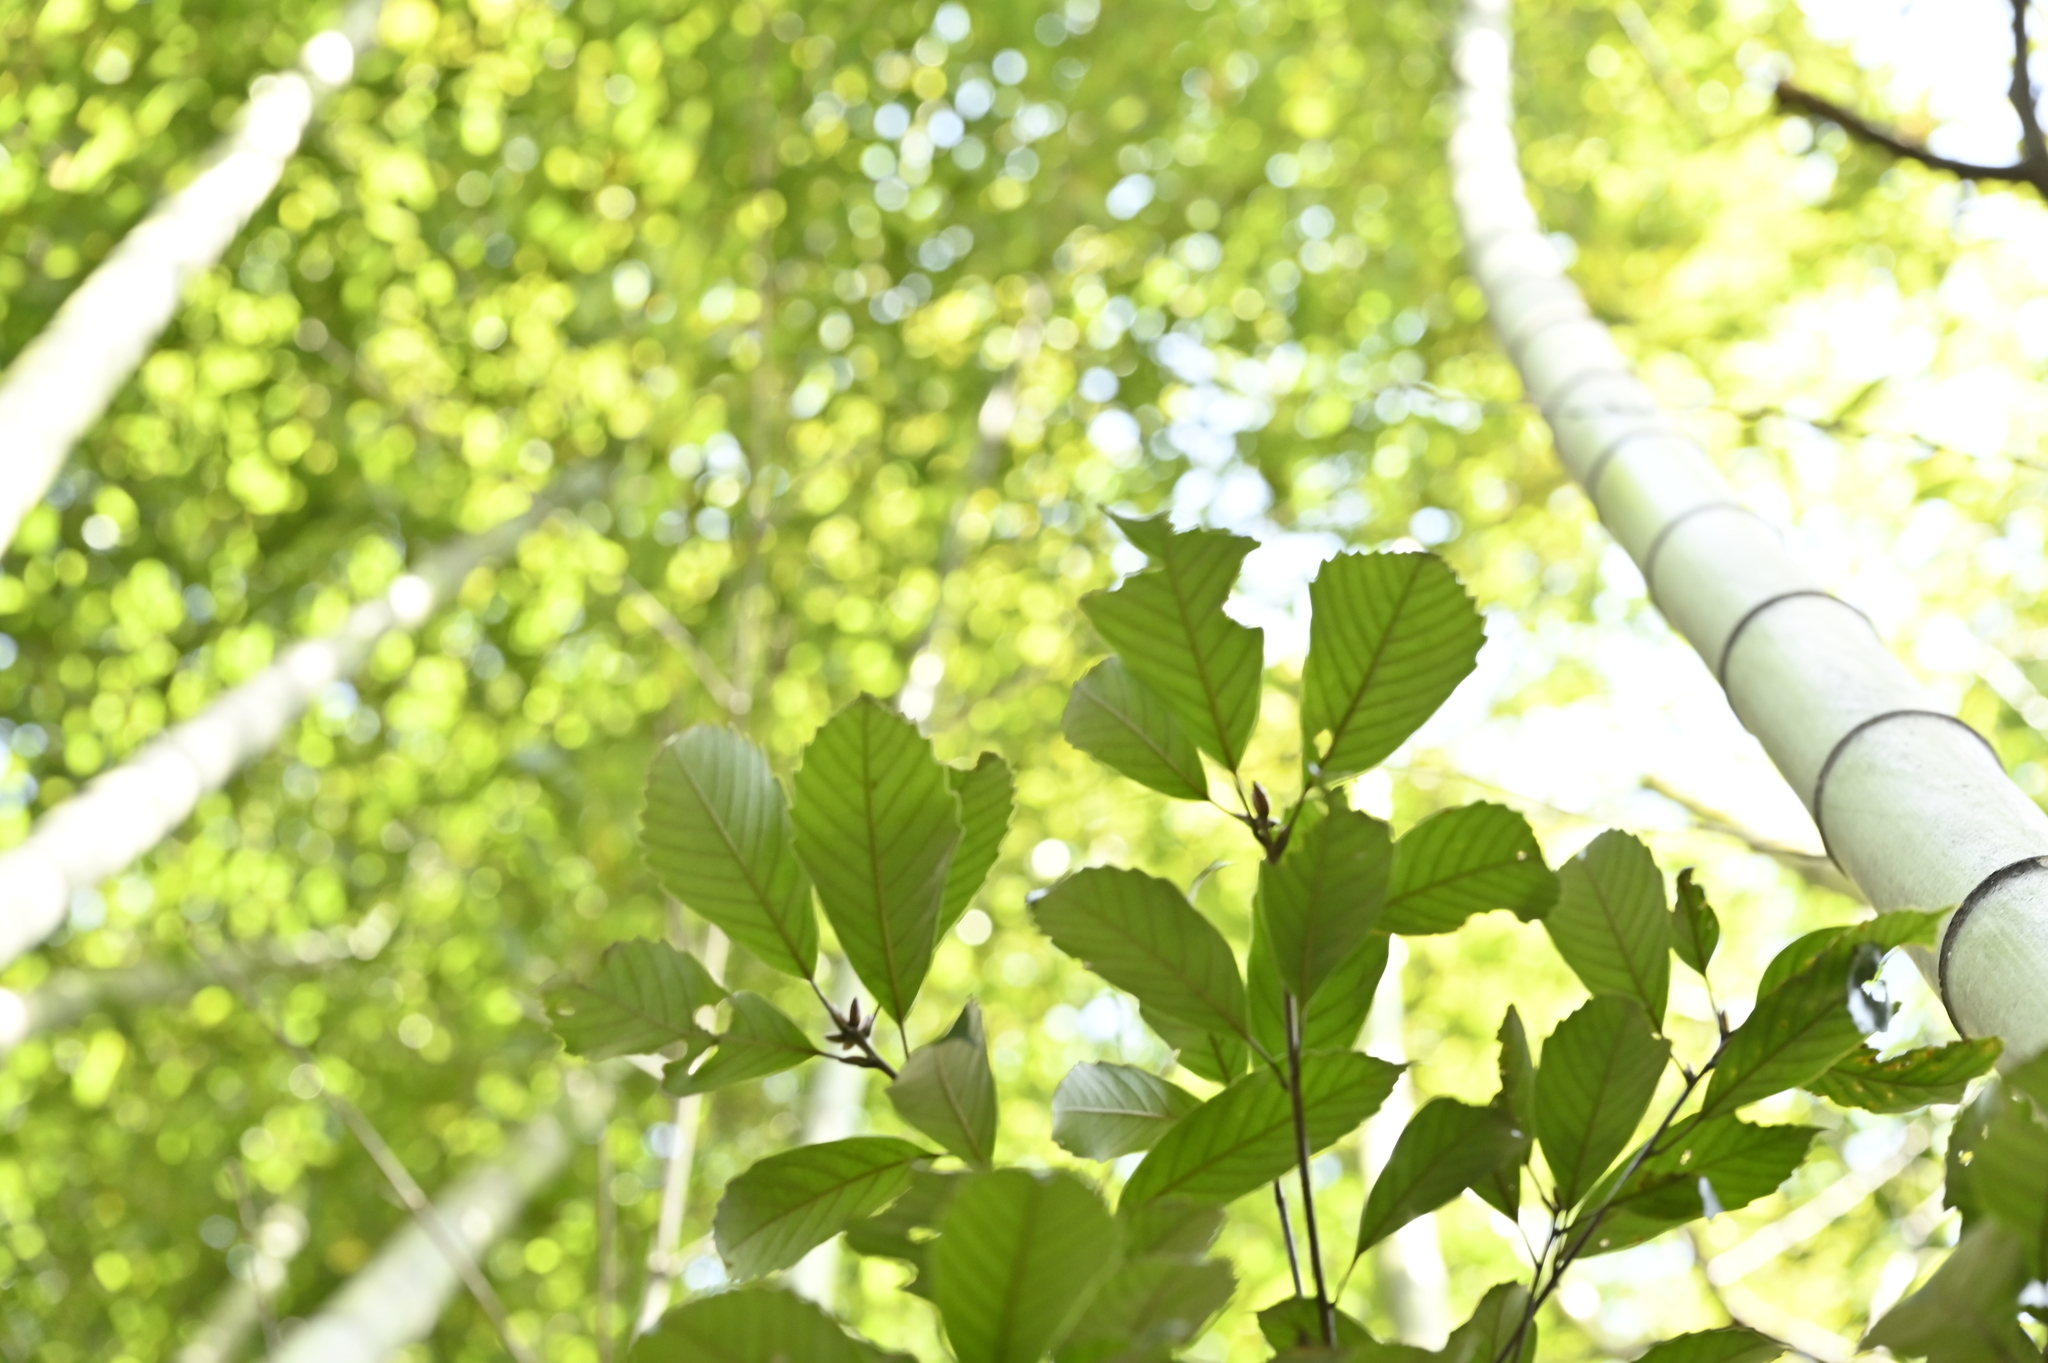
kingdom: Plantae
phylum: Tracheophyta
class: Magnoliopsida
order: Fagales
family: Fagaceae
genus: Quercus
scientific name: Quercus glauca
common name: Ring-cup oak
